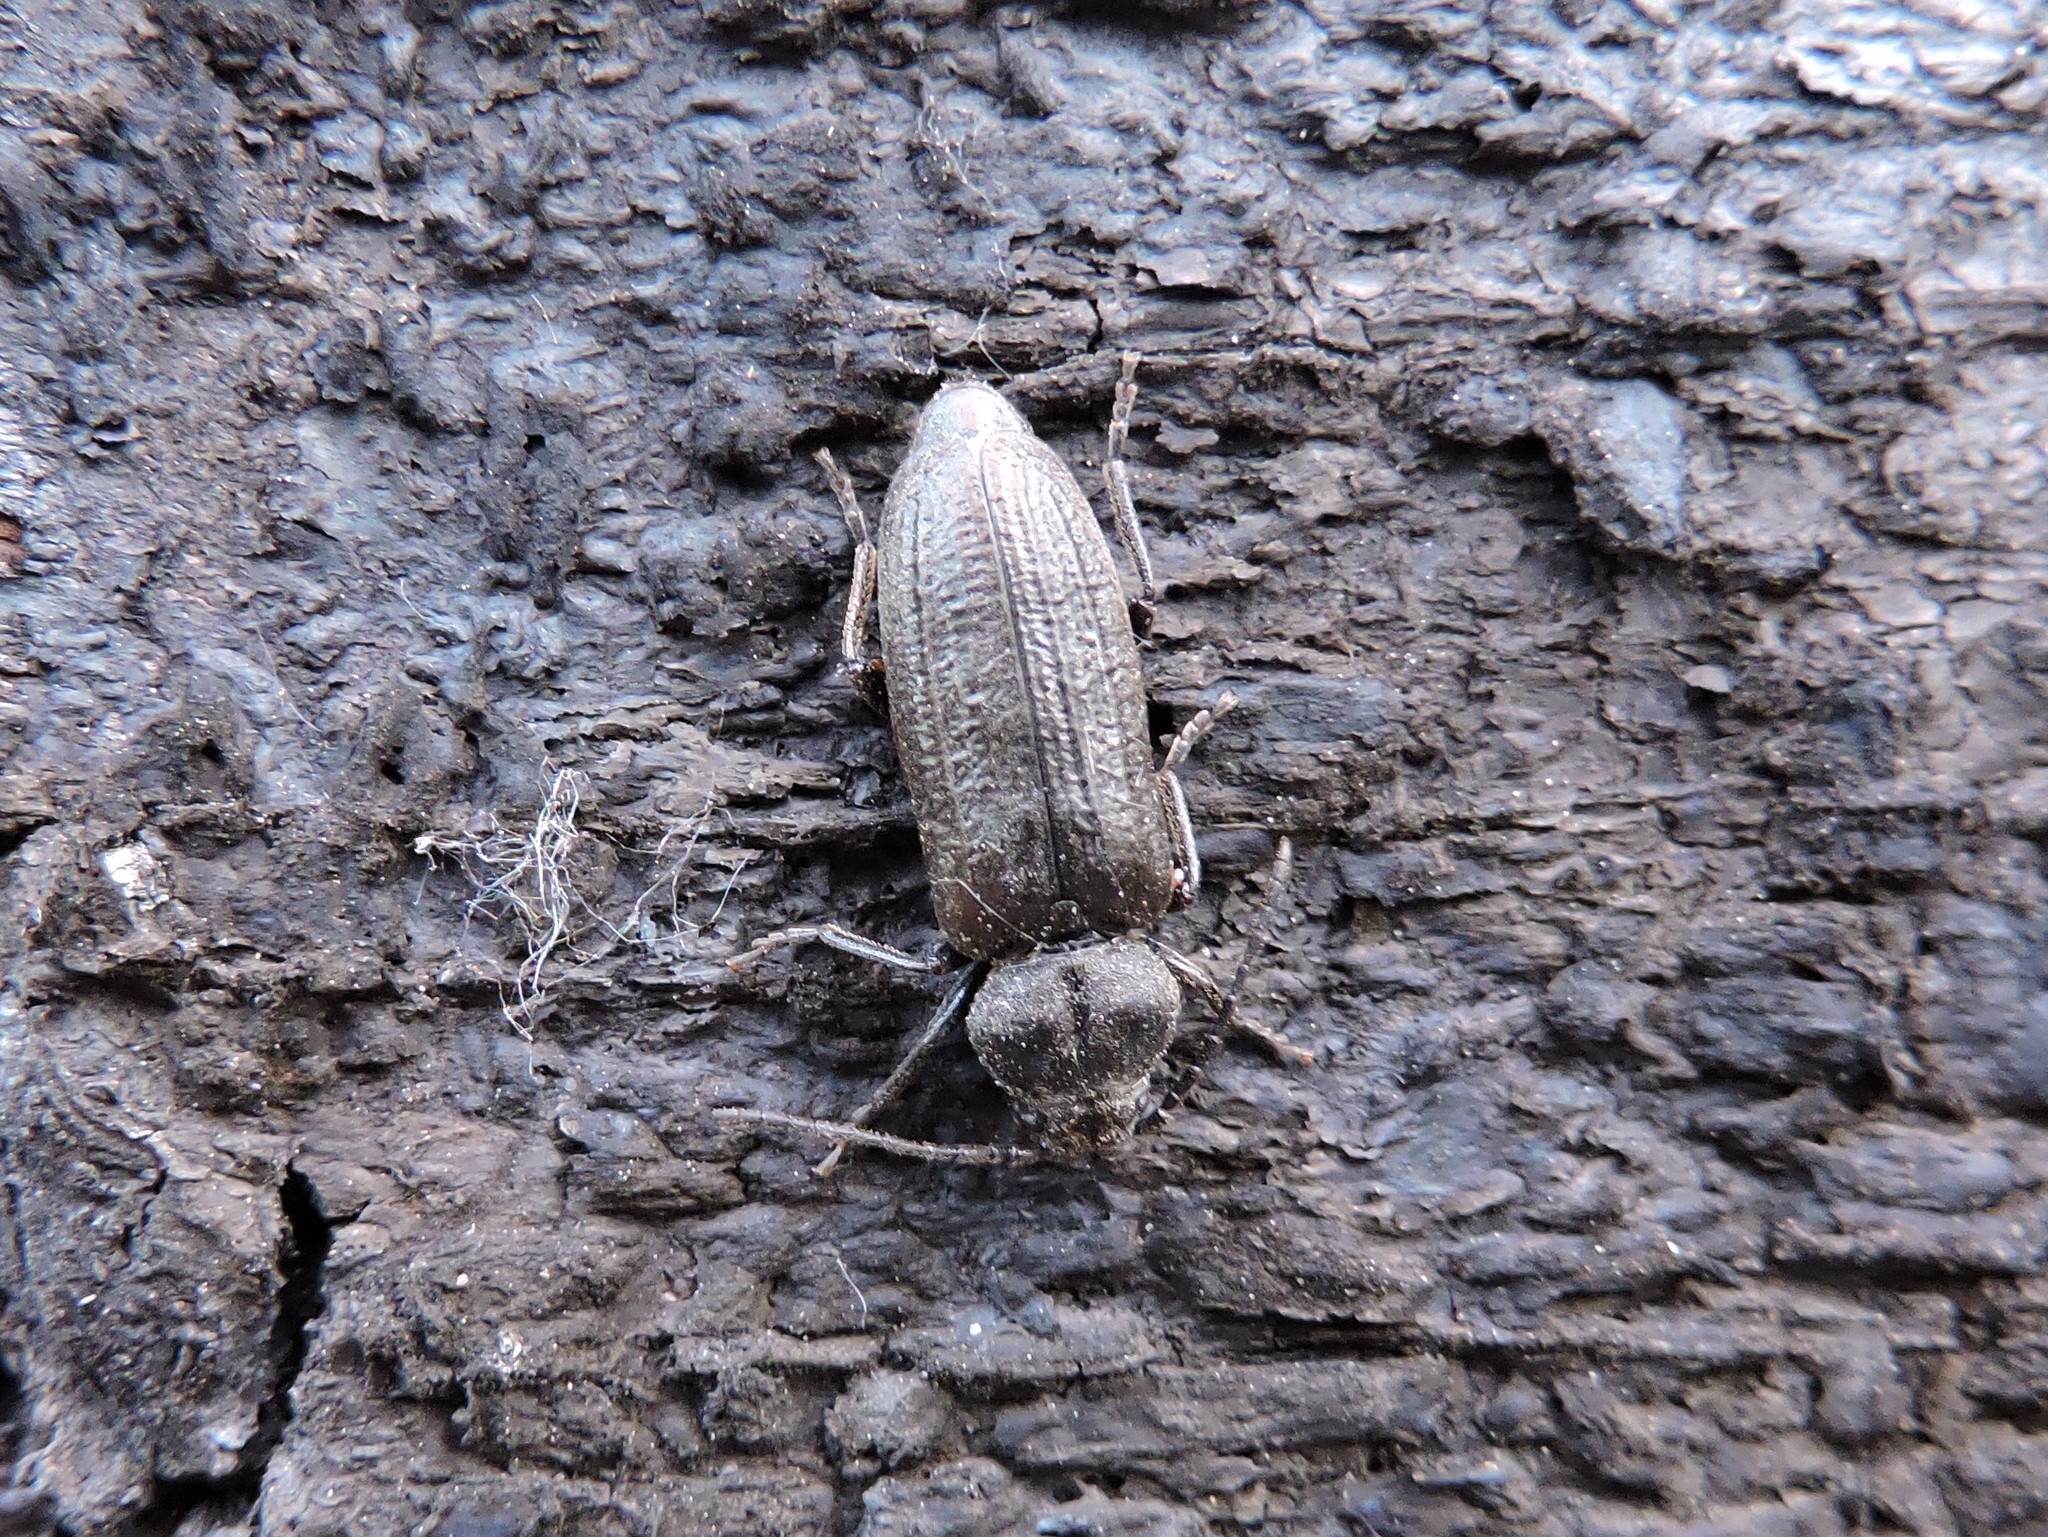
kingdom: Animalia
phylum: Arthropoda
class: Insecta
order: Coleoptera
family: Cerambycidae
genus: Asemum
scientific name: Asemum striatum
